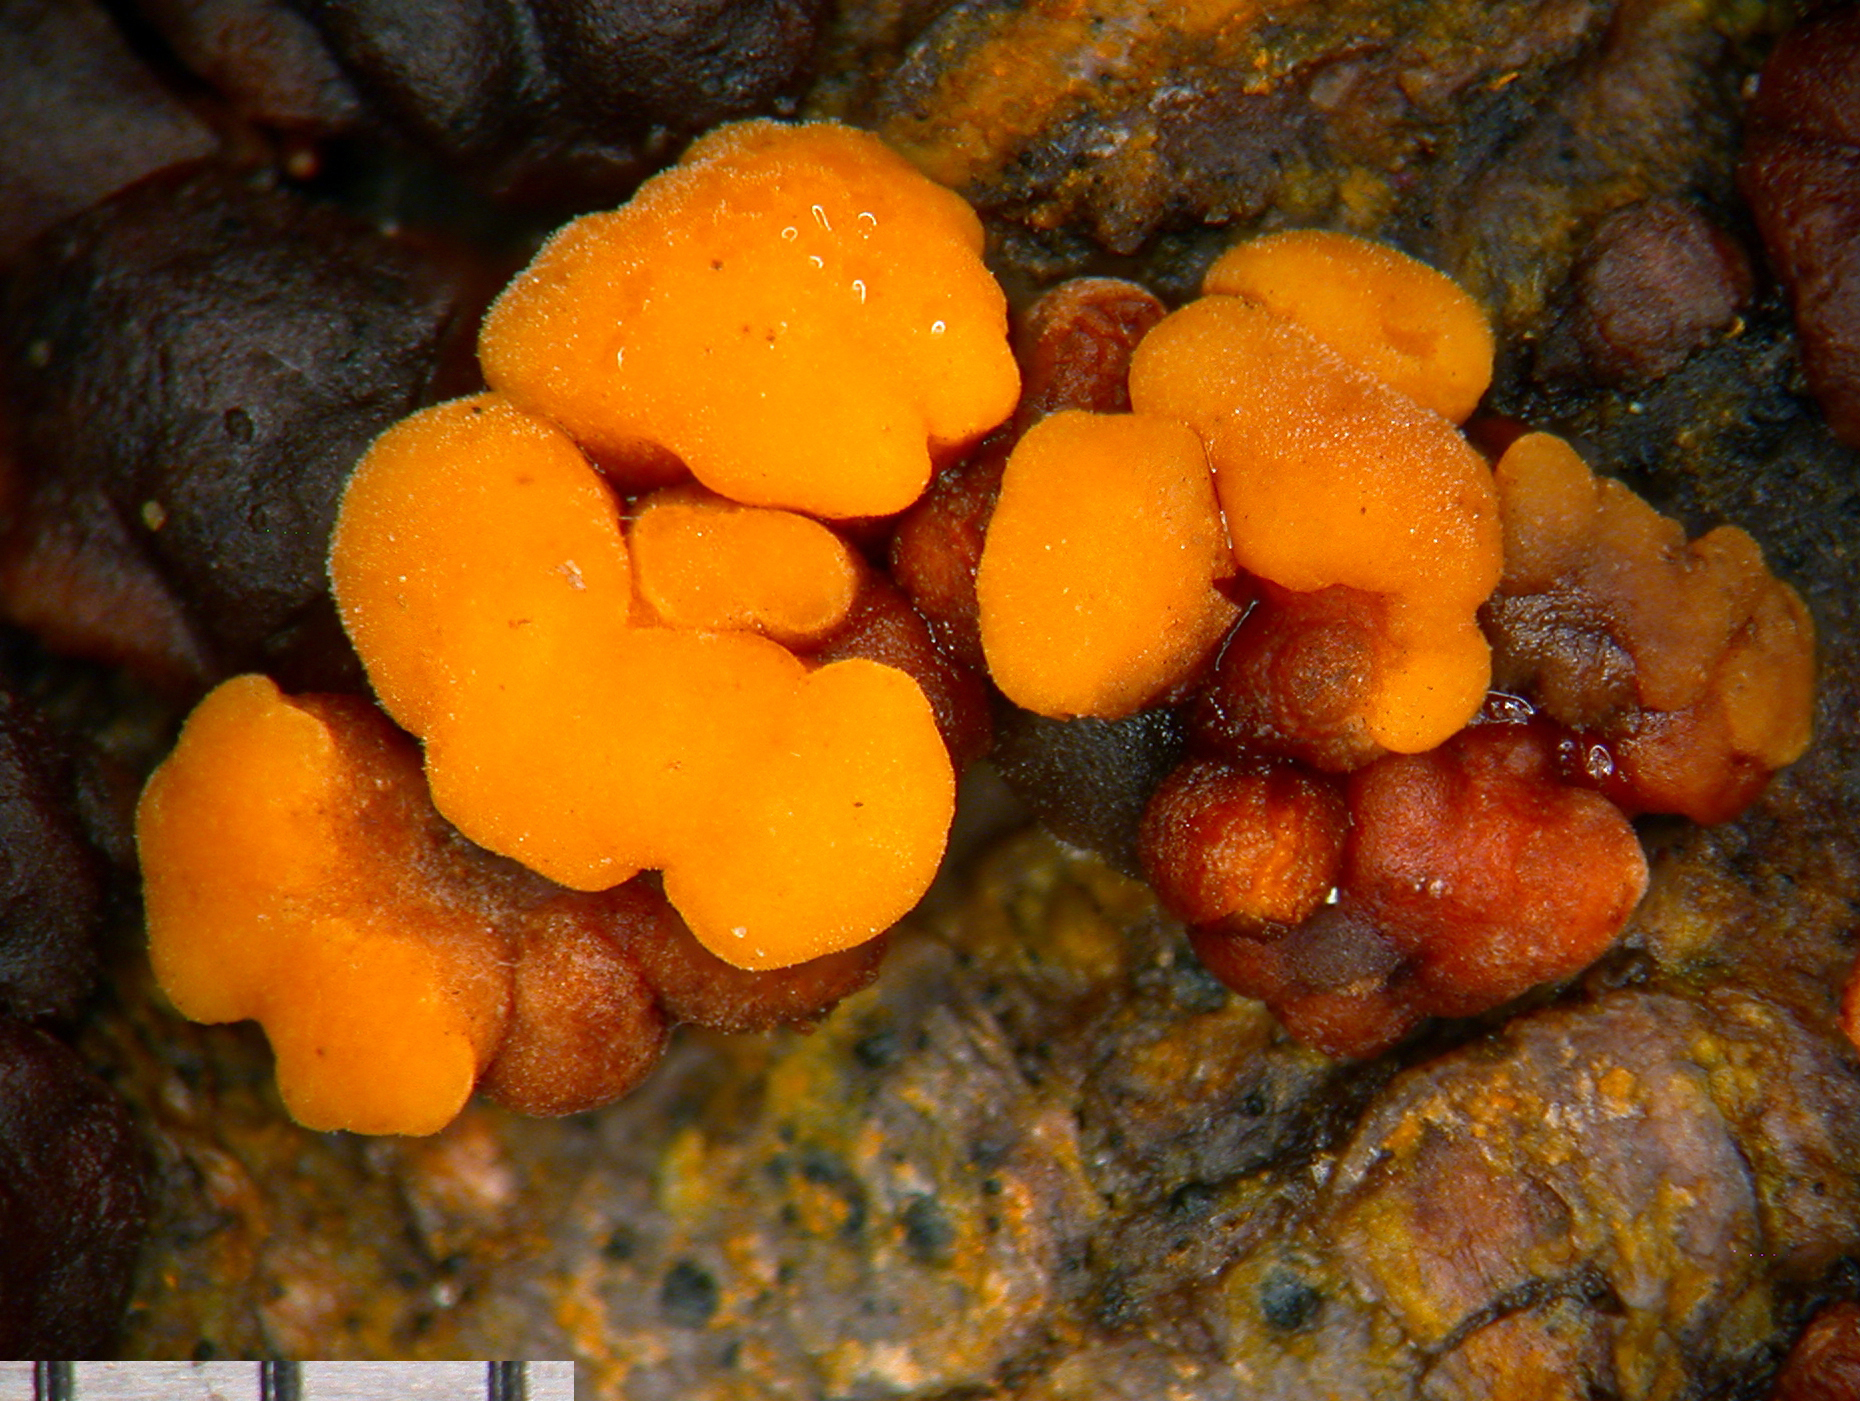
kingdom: Fungi
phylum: Basidiomycota
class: Agaricomycetes
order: Russulales
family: Stereaceae
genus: Aleurodiscus
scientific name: Aleurodiscus berggrenii
